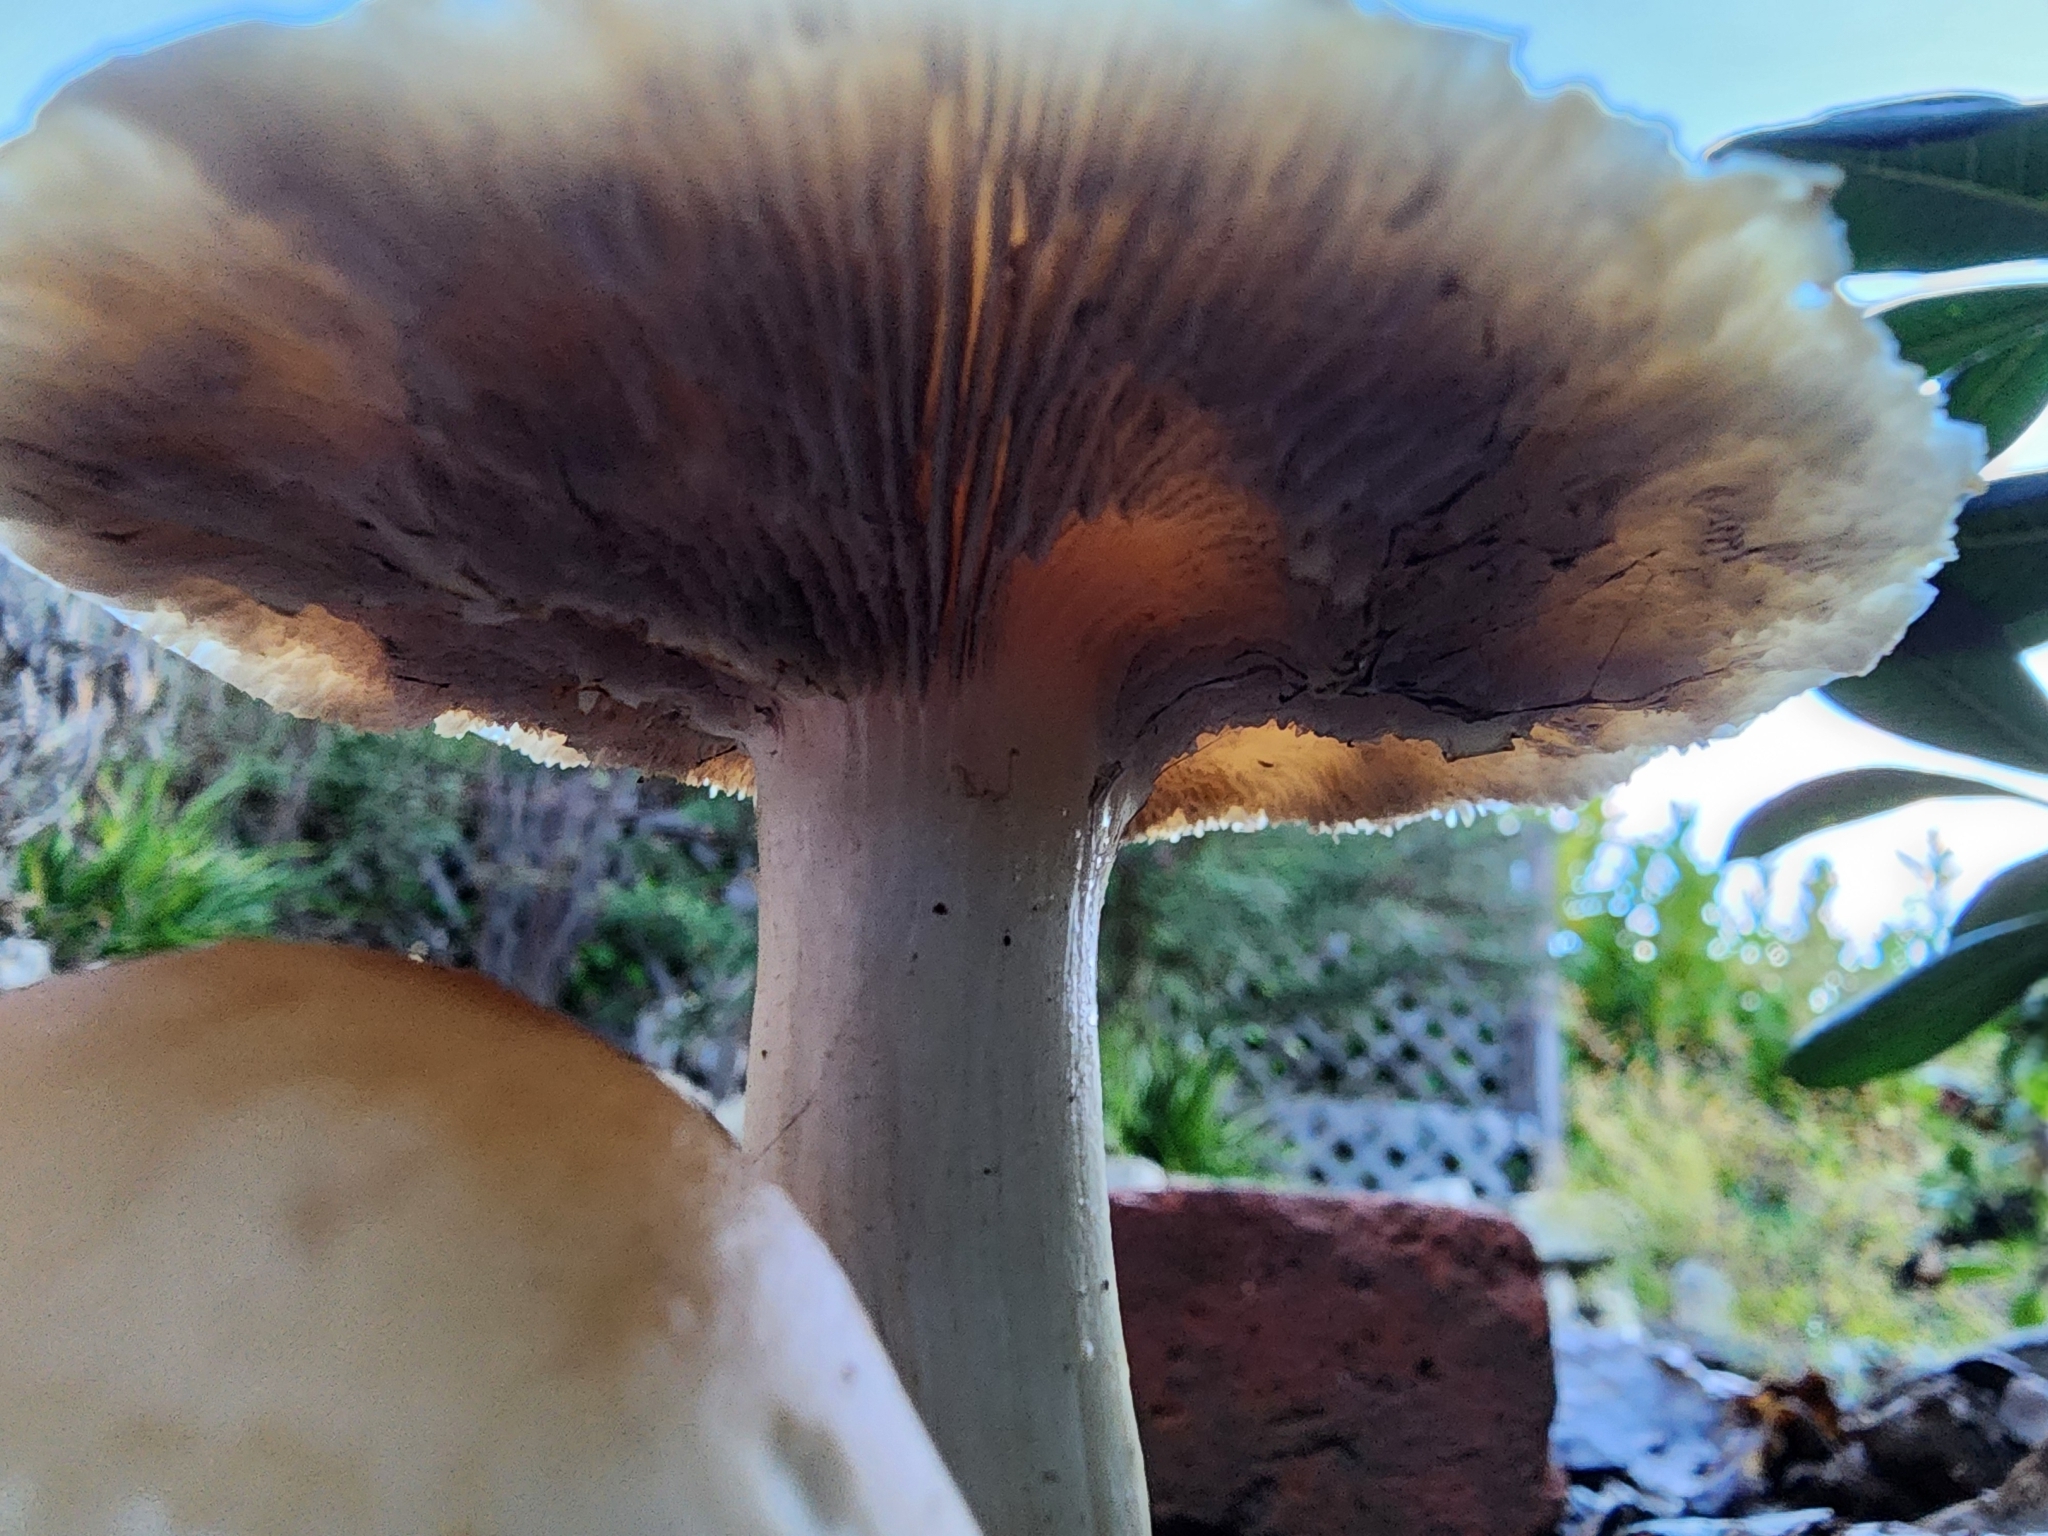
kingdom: Fungi
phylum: Basidiomycota
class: Agaricomycetes
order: Agaricales
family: Strophariaceae
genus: Leratiomyces
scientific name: Leratiomyces percevalii
